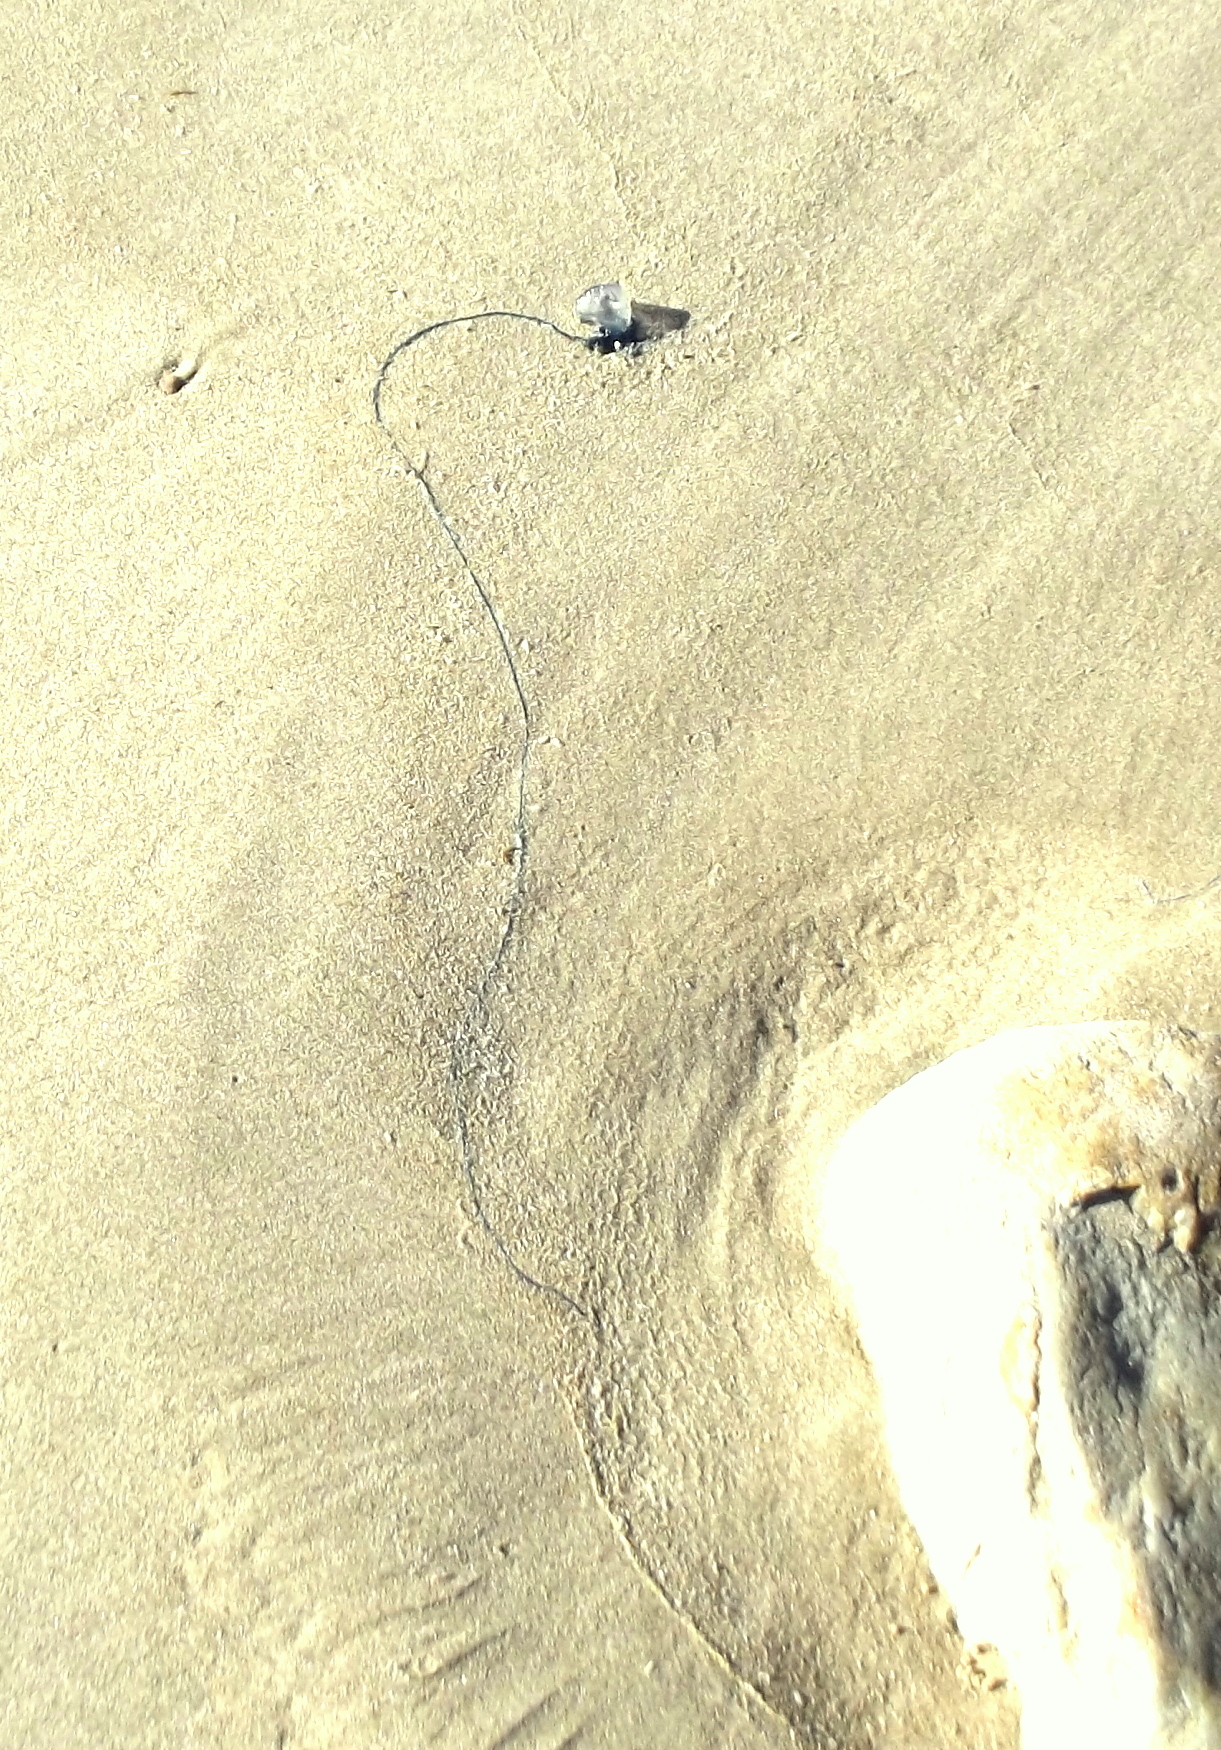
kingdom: Animalia
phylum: Cnidaria
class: Hydrozoa
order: Siphonophorae
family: Physaliidae
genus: Physalia
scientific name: Physalia physalis
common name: Portuguese man-of-war
